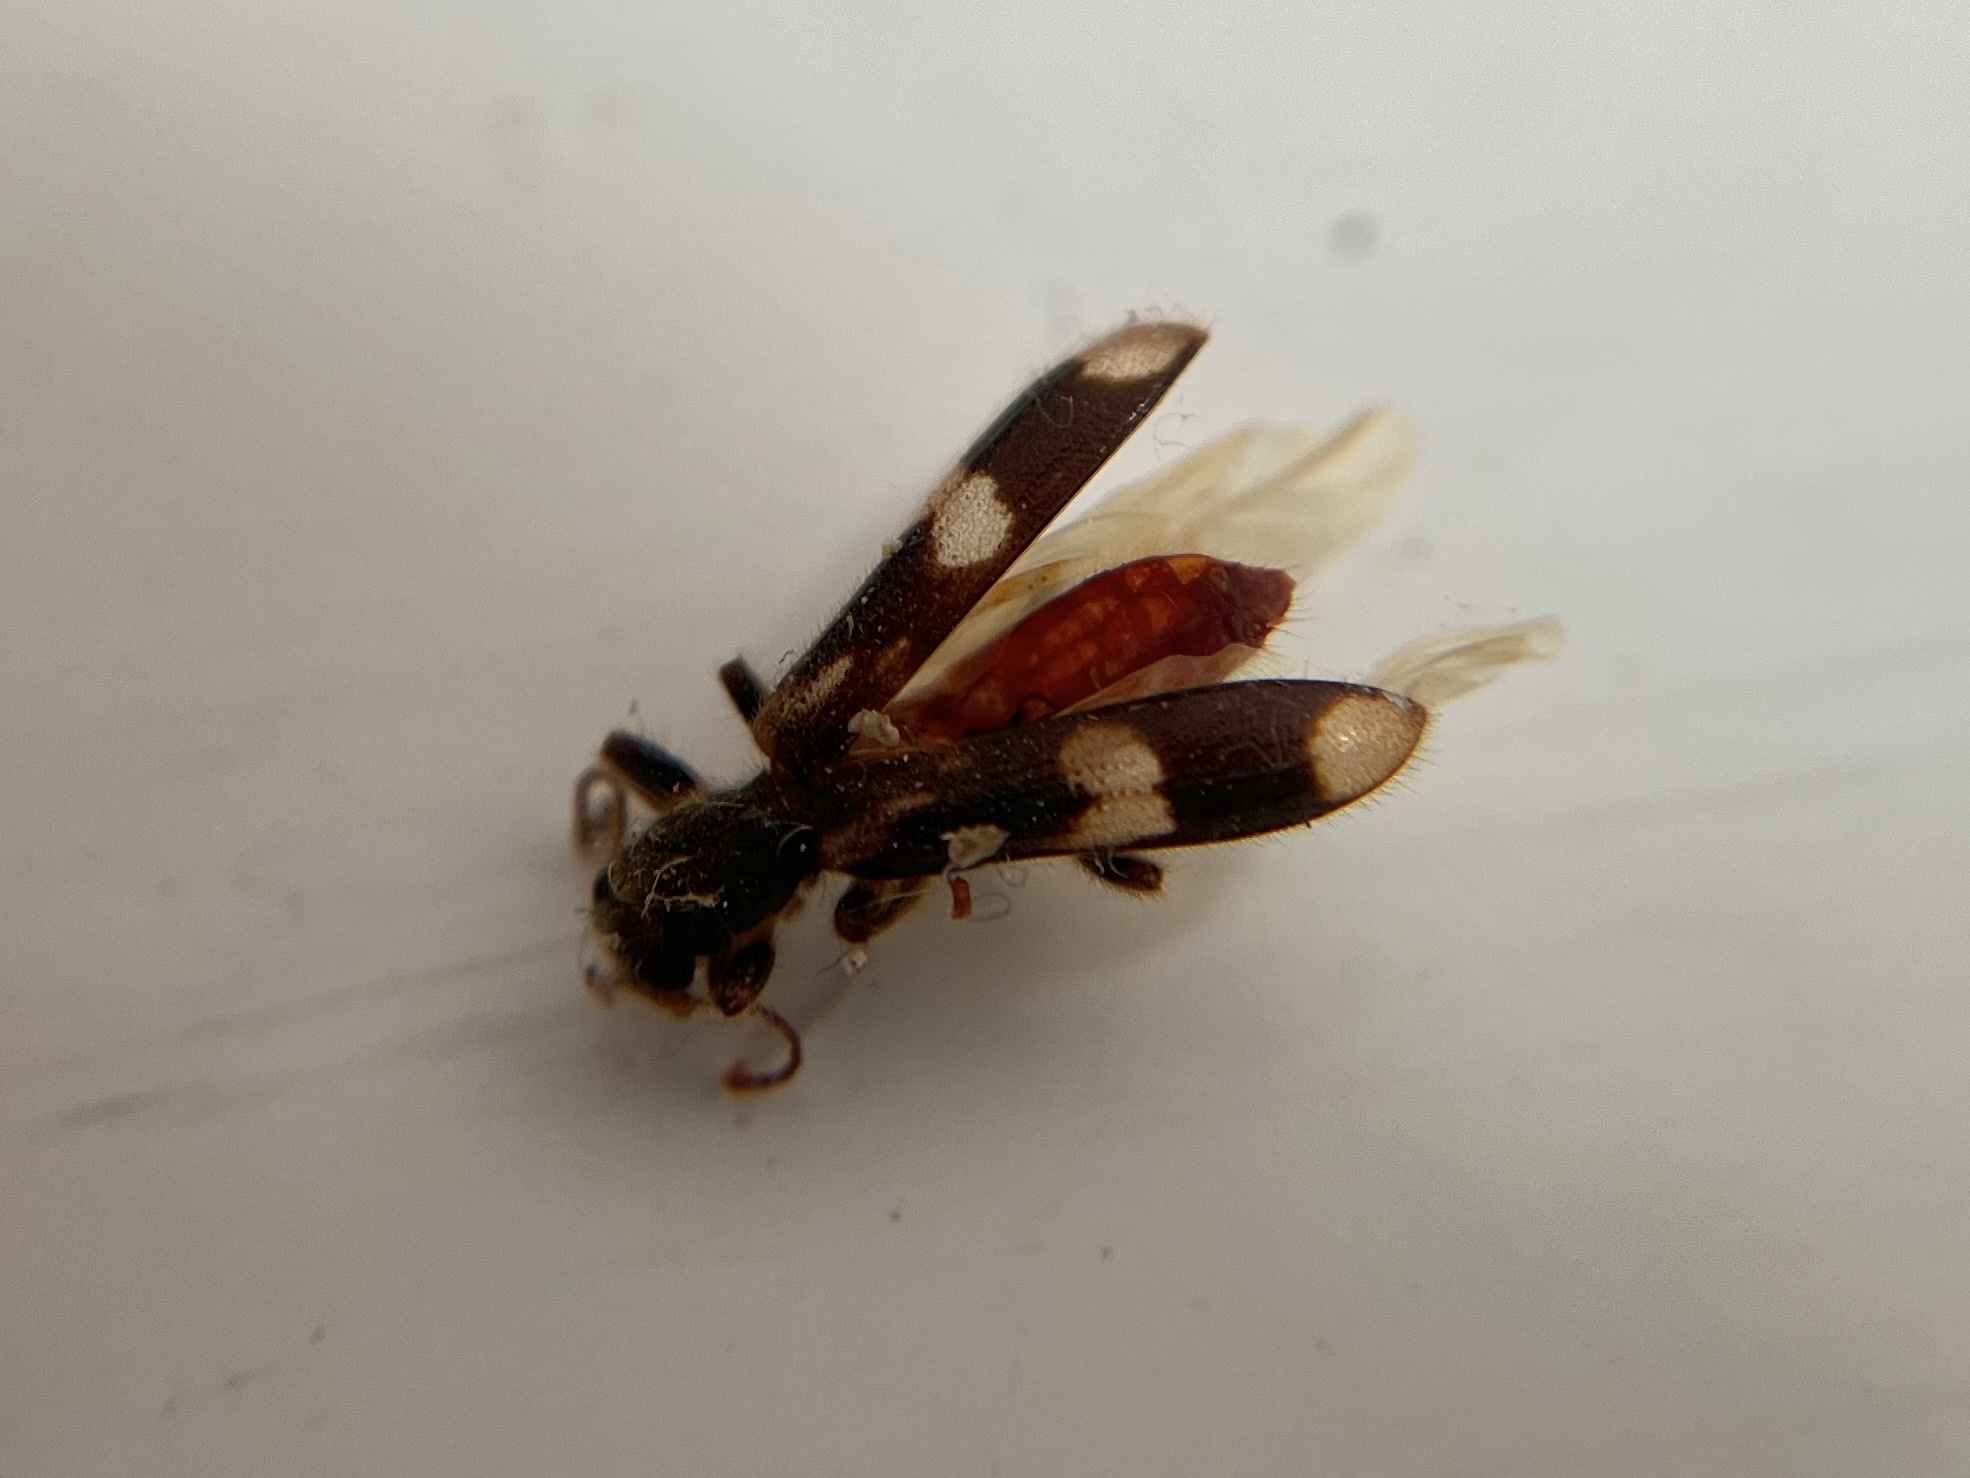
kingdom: Animalia
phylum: Arthropoda
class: Insecta
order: Coleoptera
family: Cleridae
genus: Opilo
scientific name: Opilo mollis
